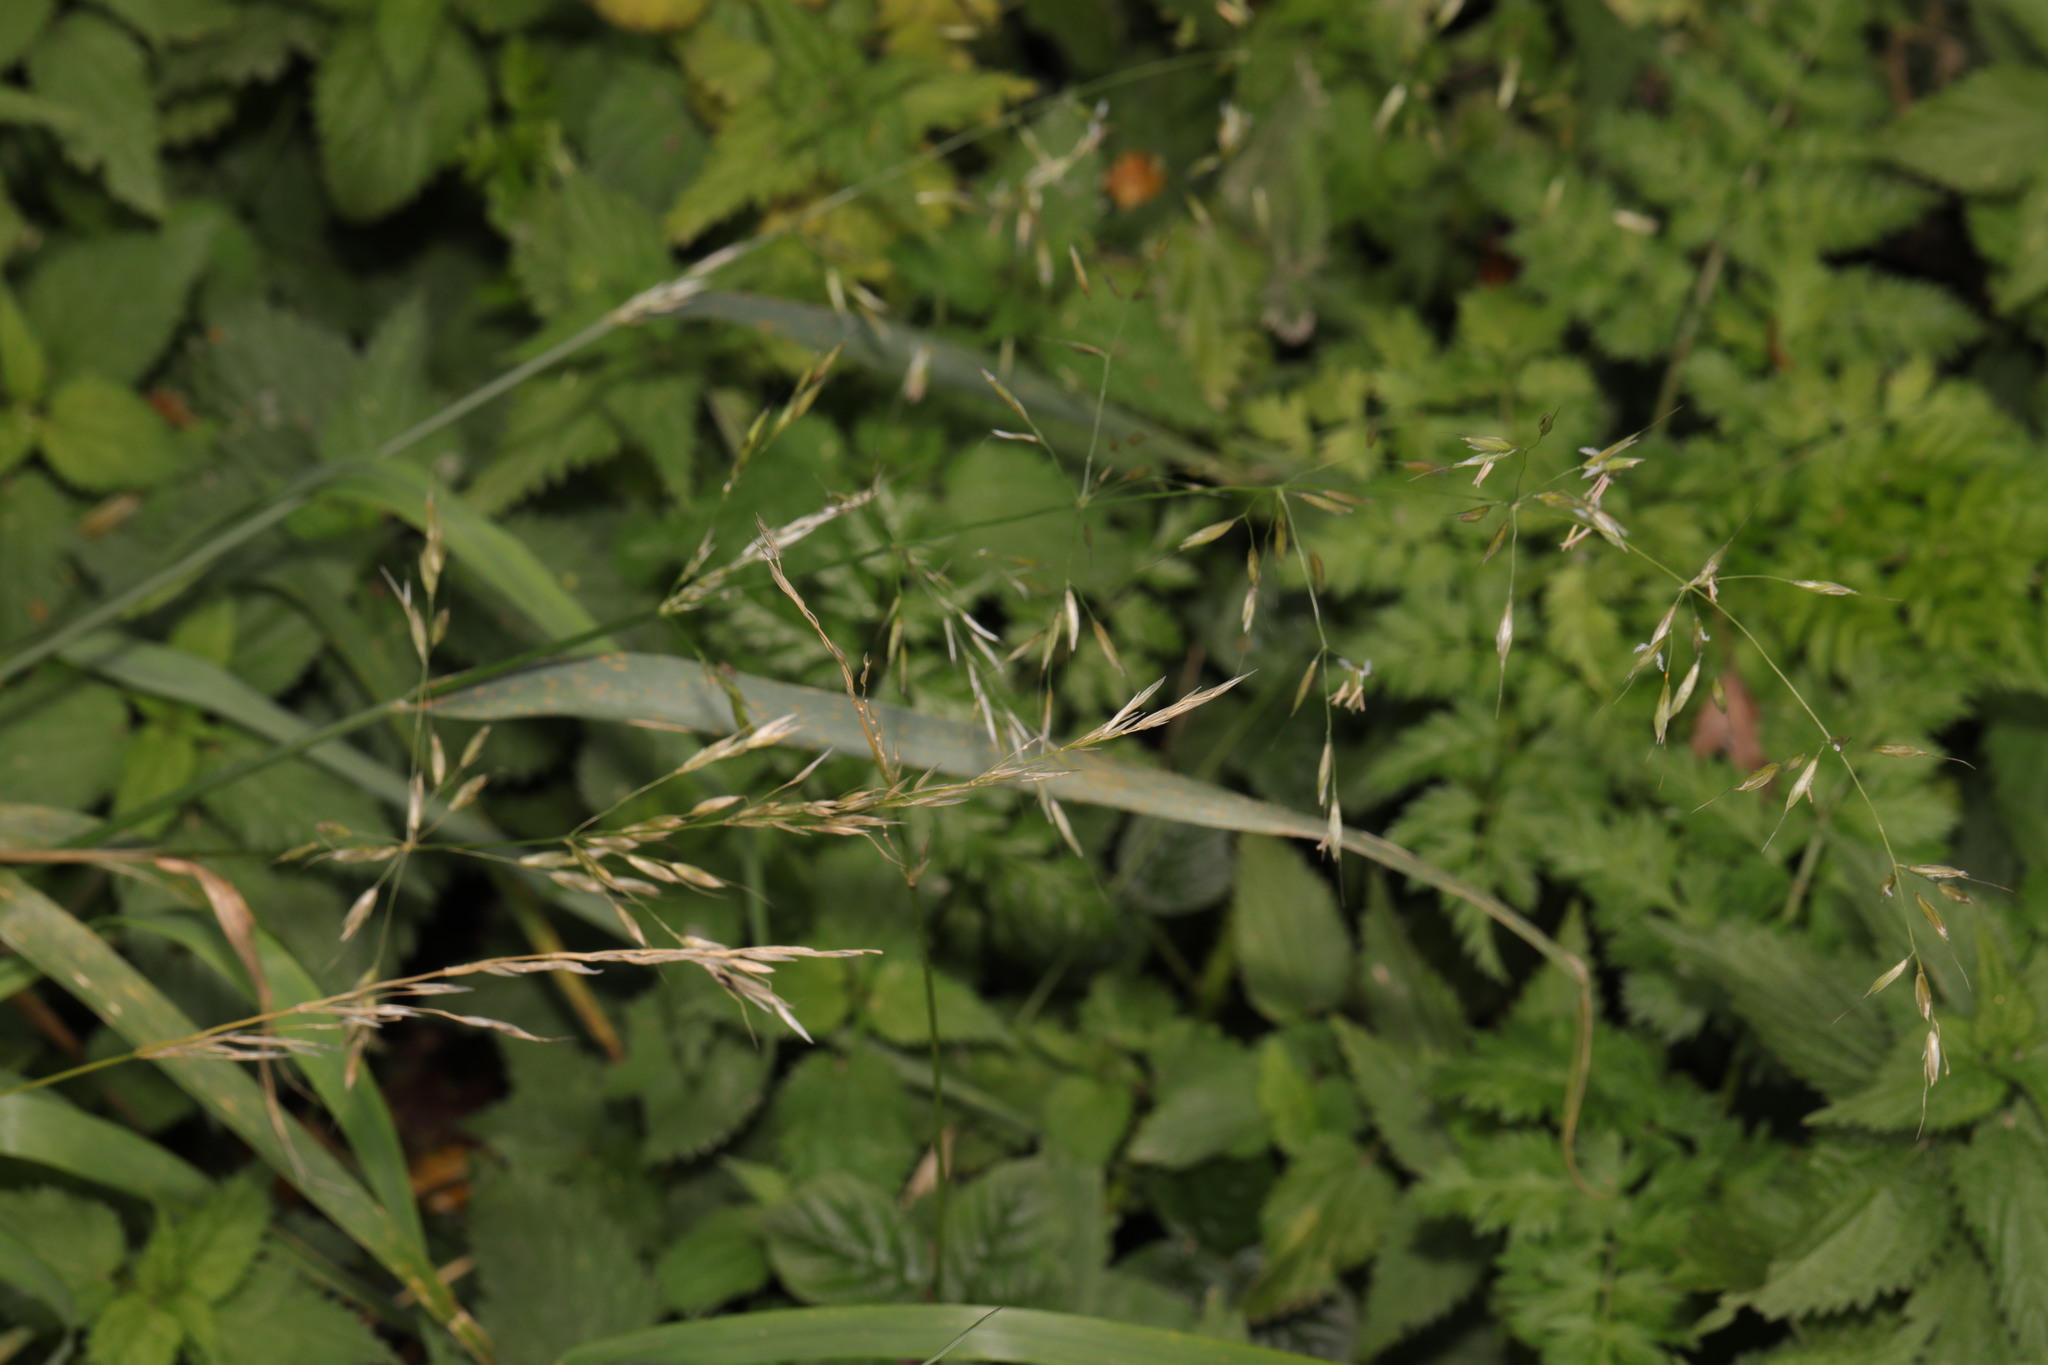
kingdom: Plantae
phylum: Tracheophyta
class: Liliopsida
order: Poales
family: Poaceae
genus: Arrhenatherum
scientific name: Arrhenatherum elatius
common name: Tall oatgrass
